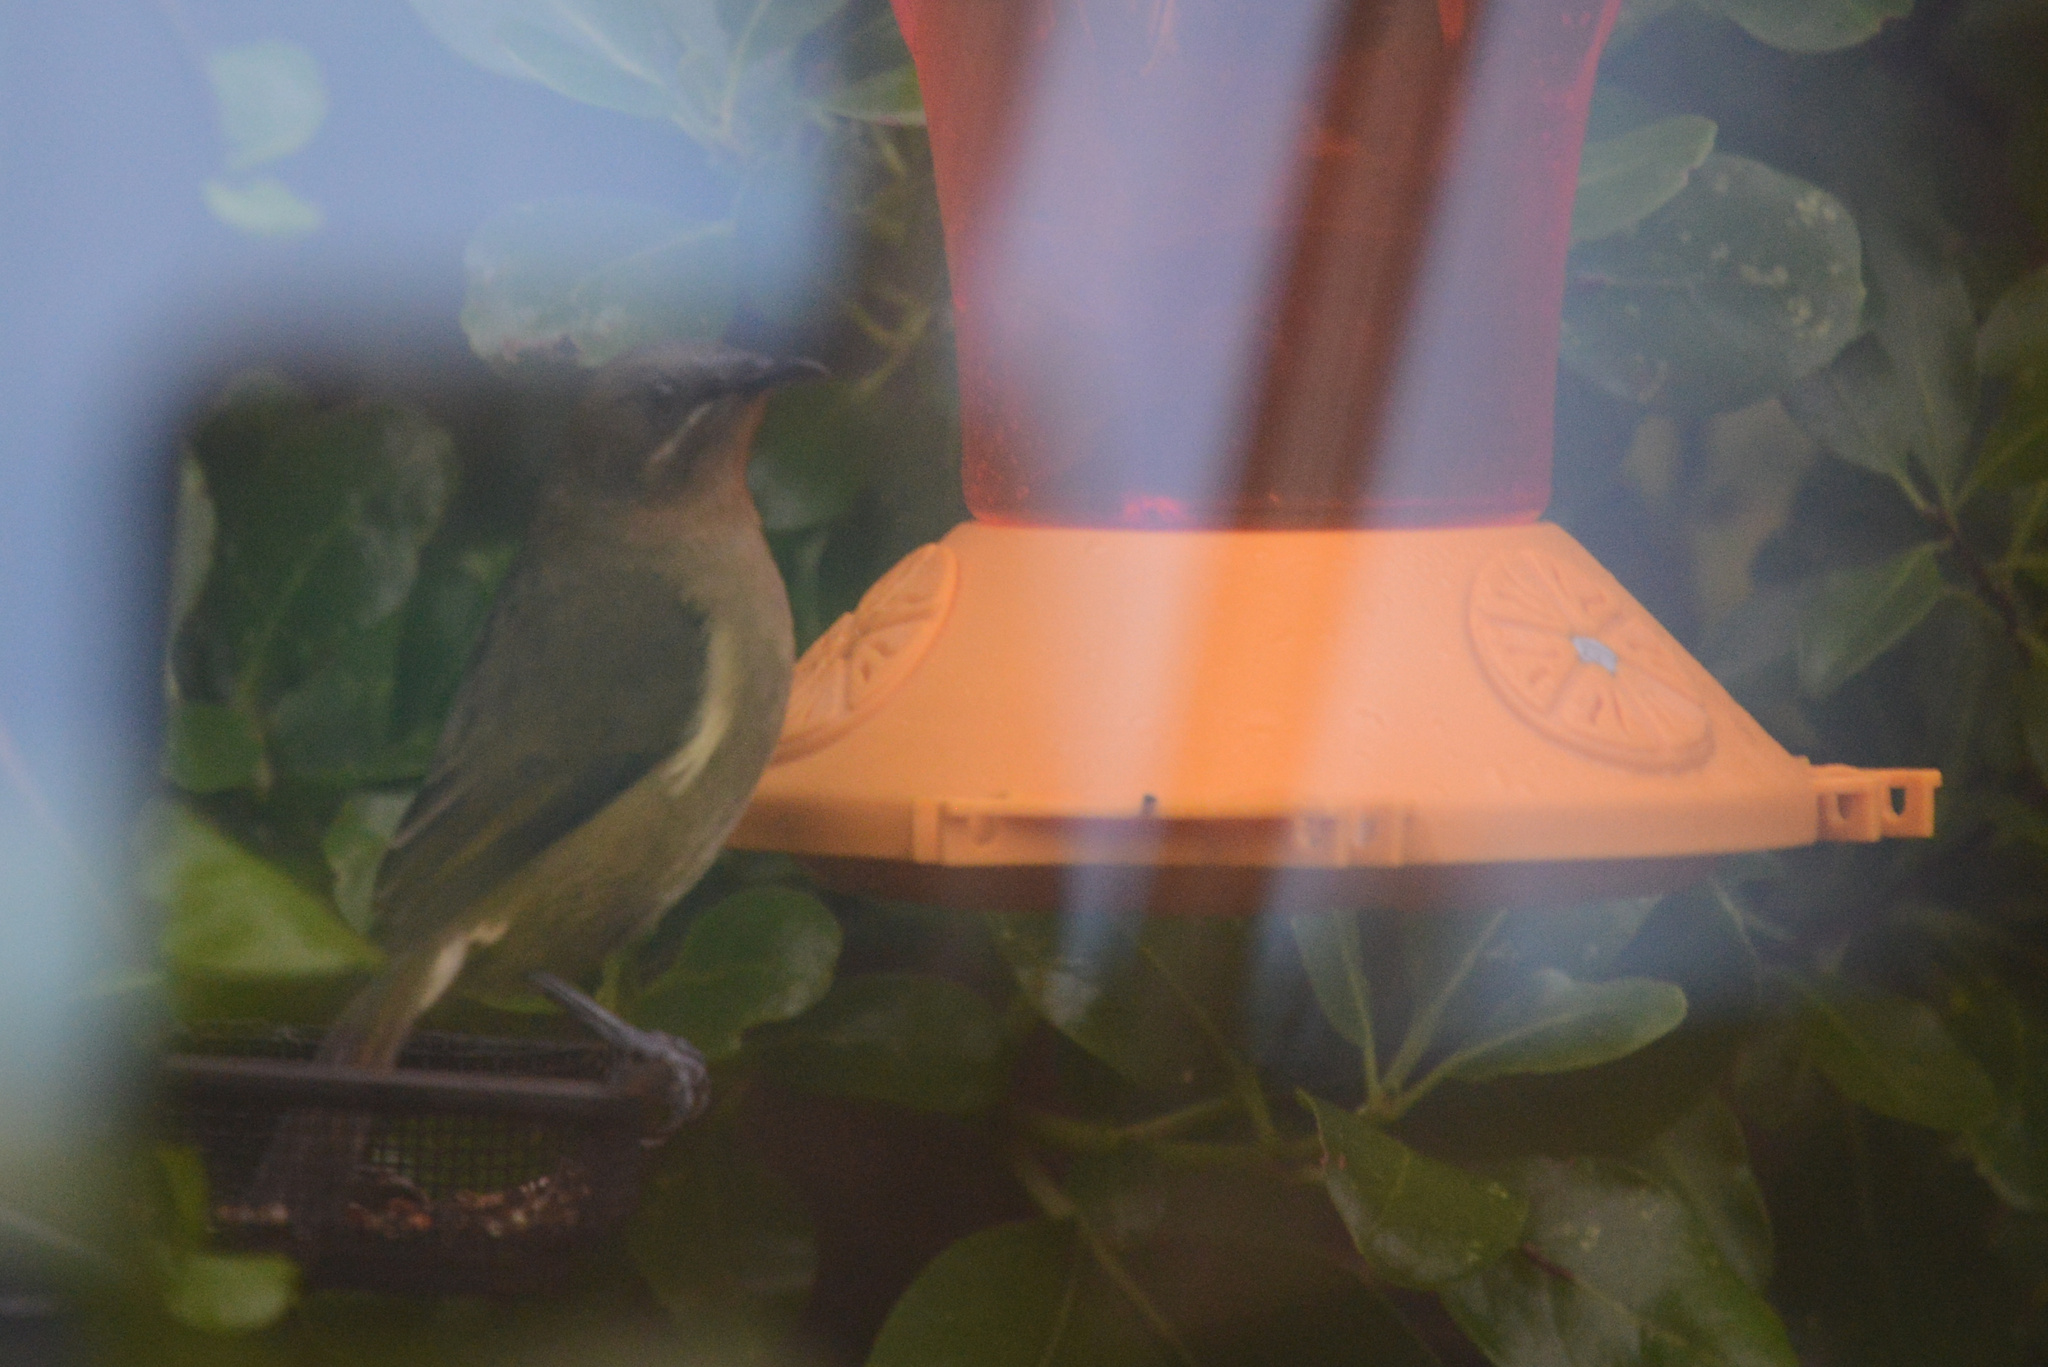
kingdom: Animalia
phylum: Chordata
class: Aves
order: Passeriformes
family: Meliphagidae
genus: Anthornis
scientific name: Anthornis melanura
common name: New zealand bellbird
